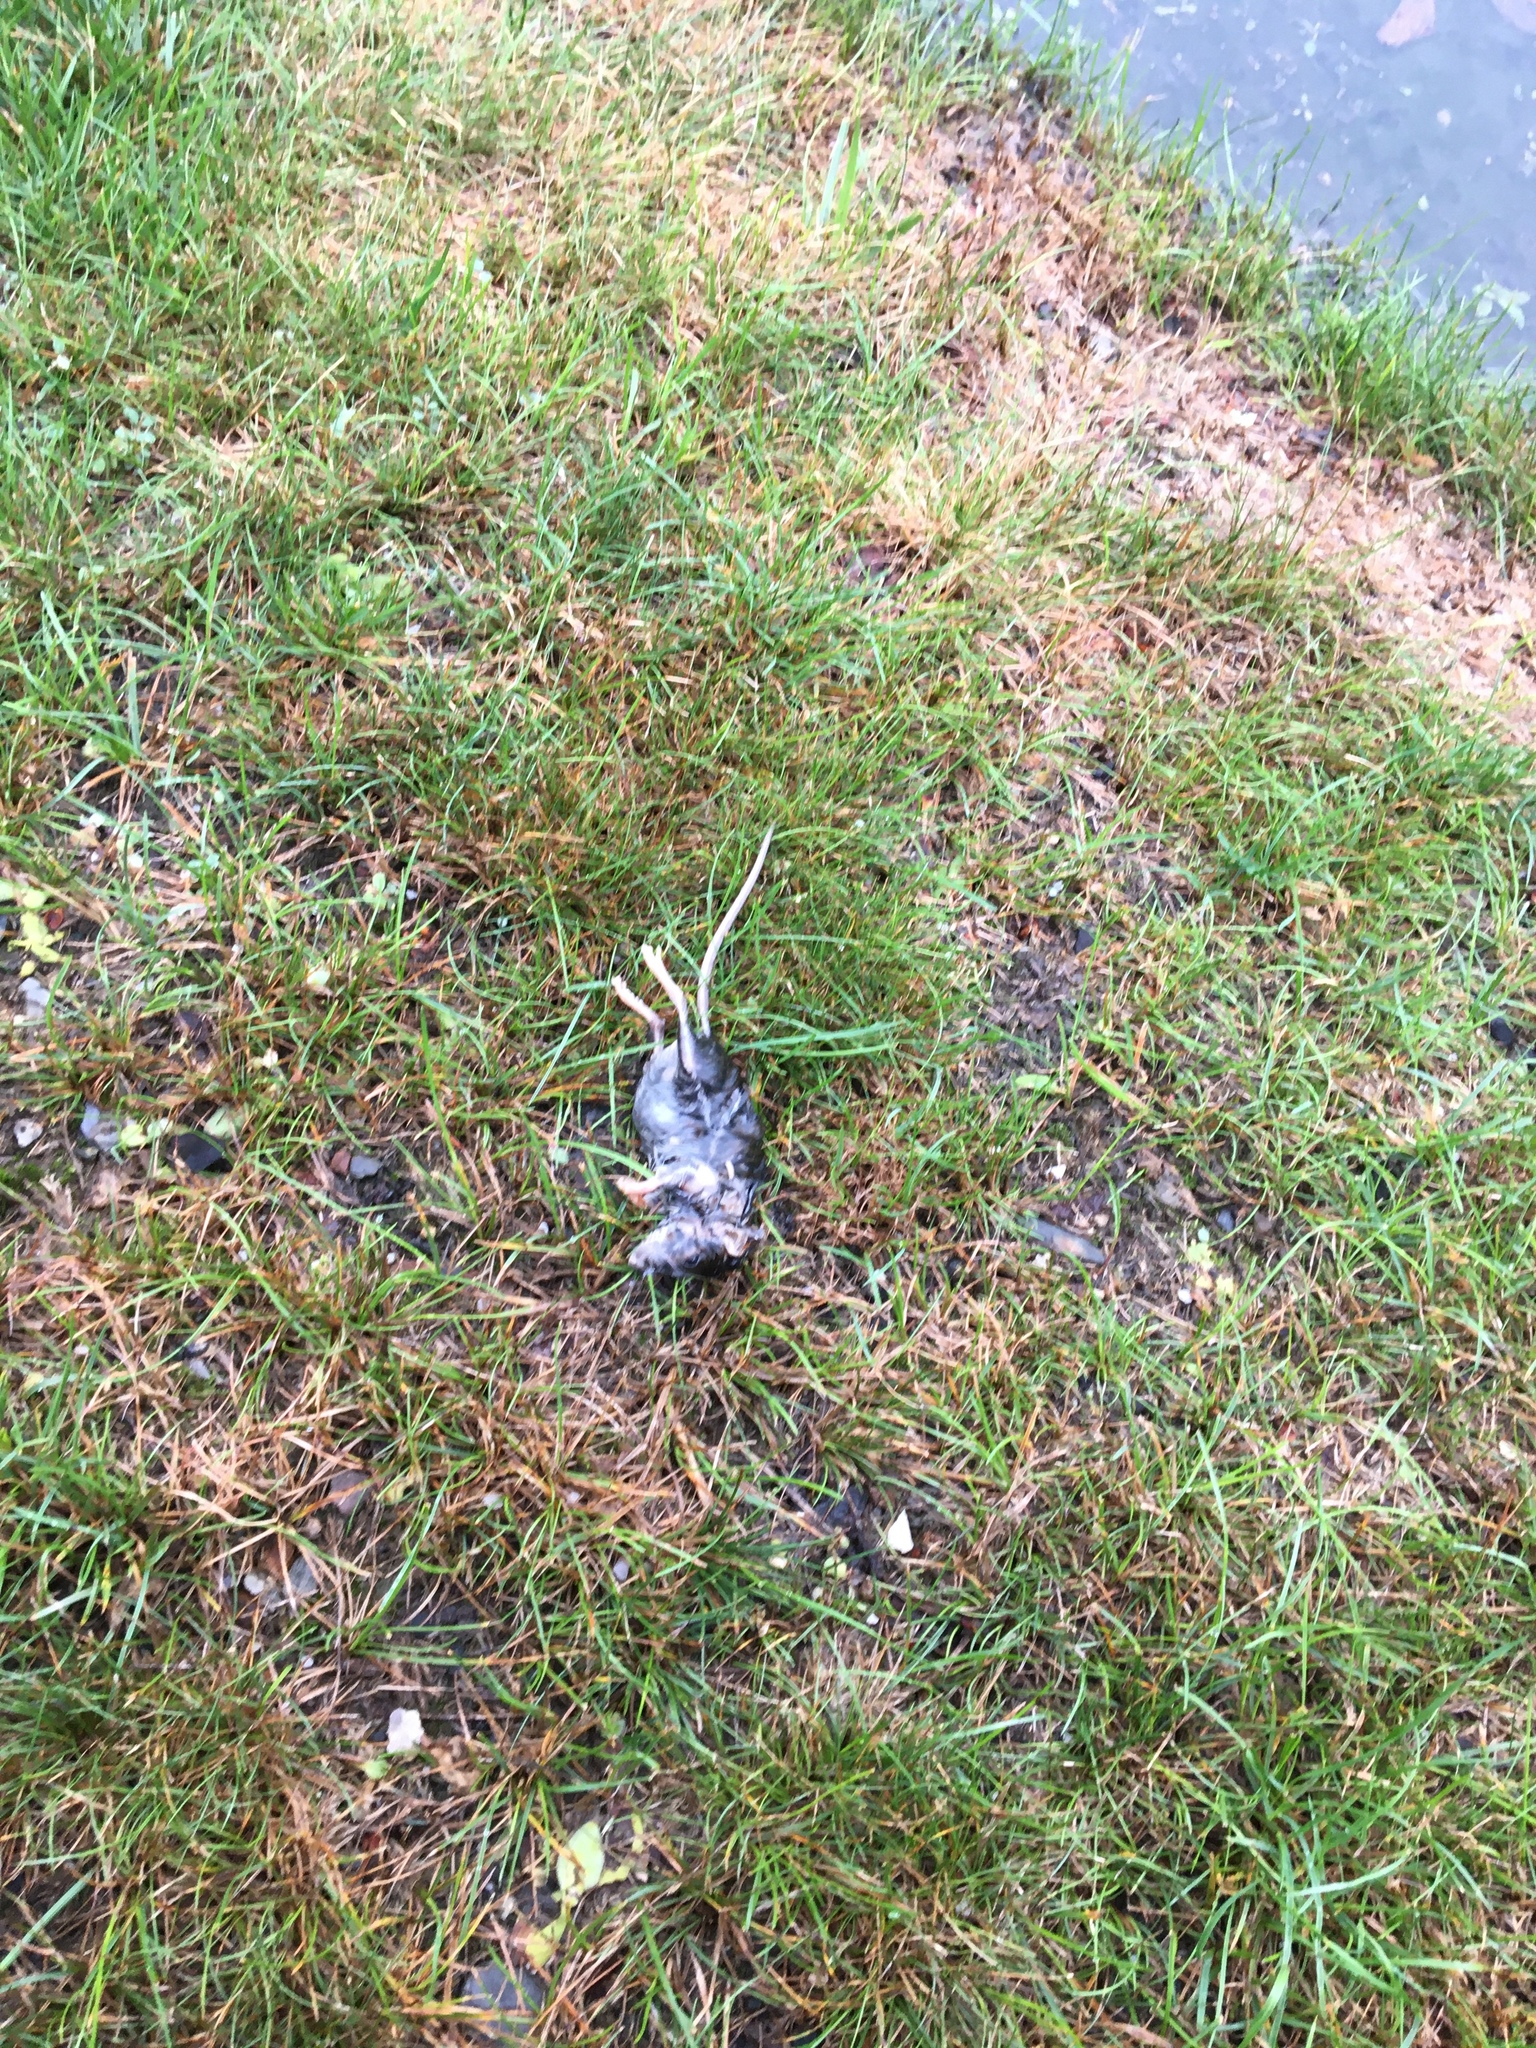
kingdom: Animalia
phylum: Chordata
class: Mammalia
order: Rodentia
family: Cricetidae
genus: Peromyscus
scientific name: Peromyscus leucopus
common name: White-footed deermouse
